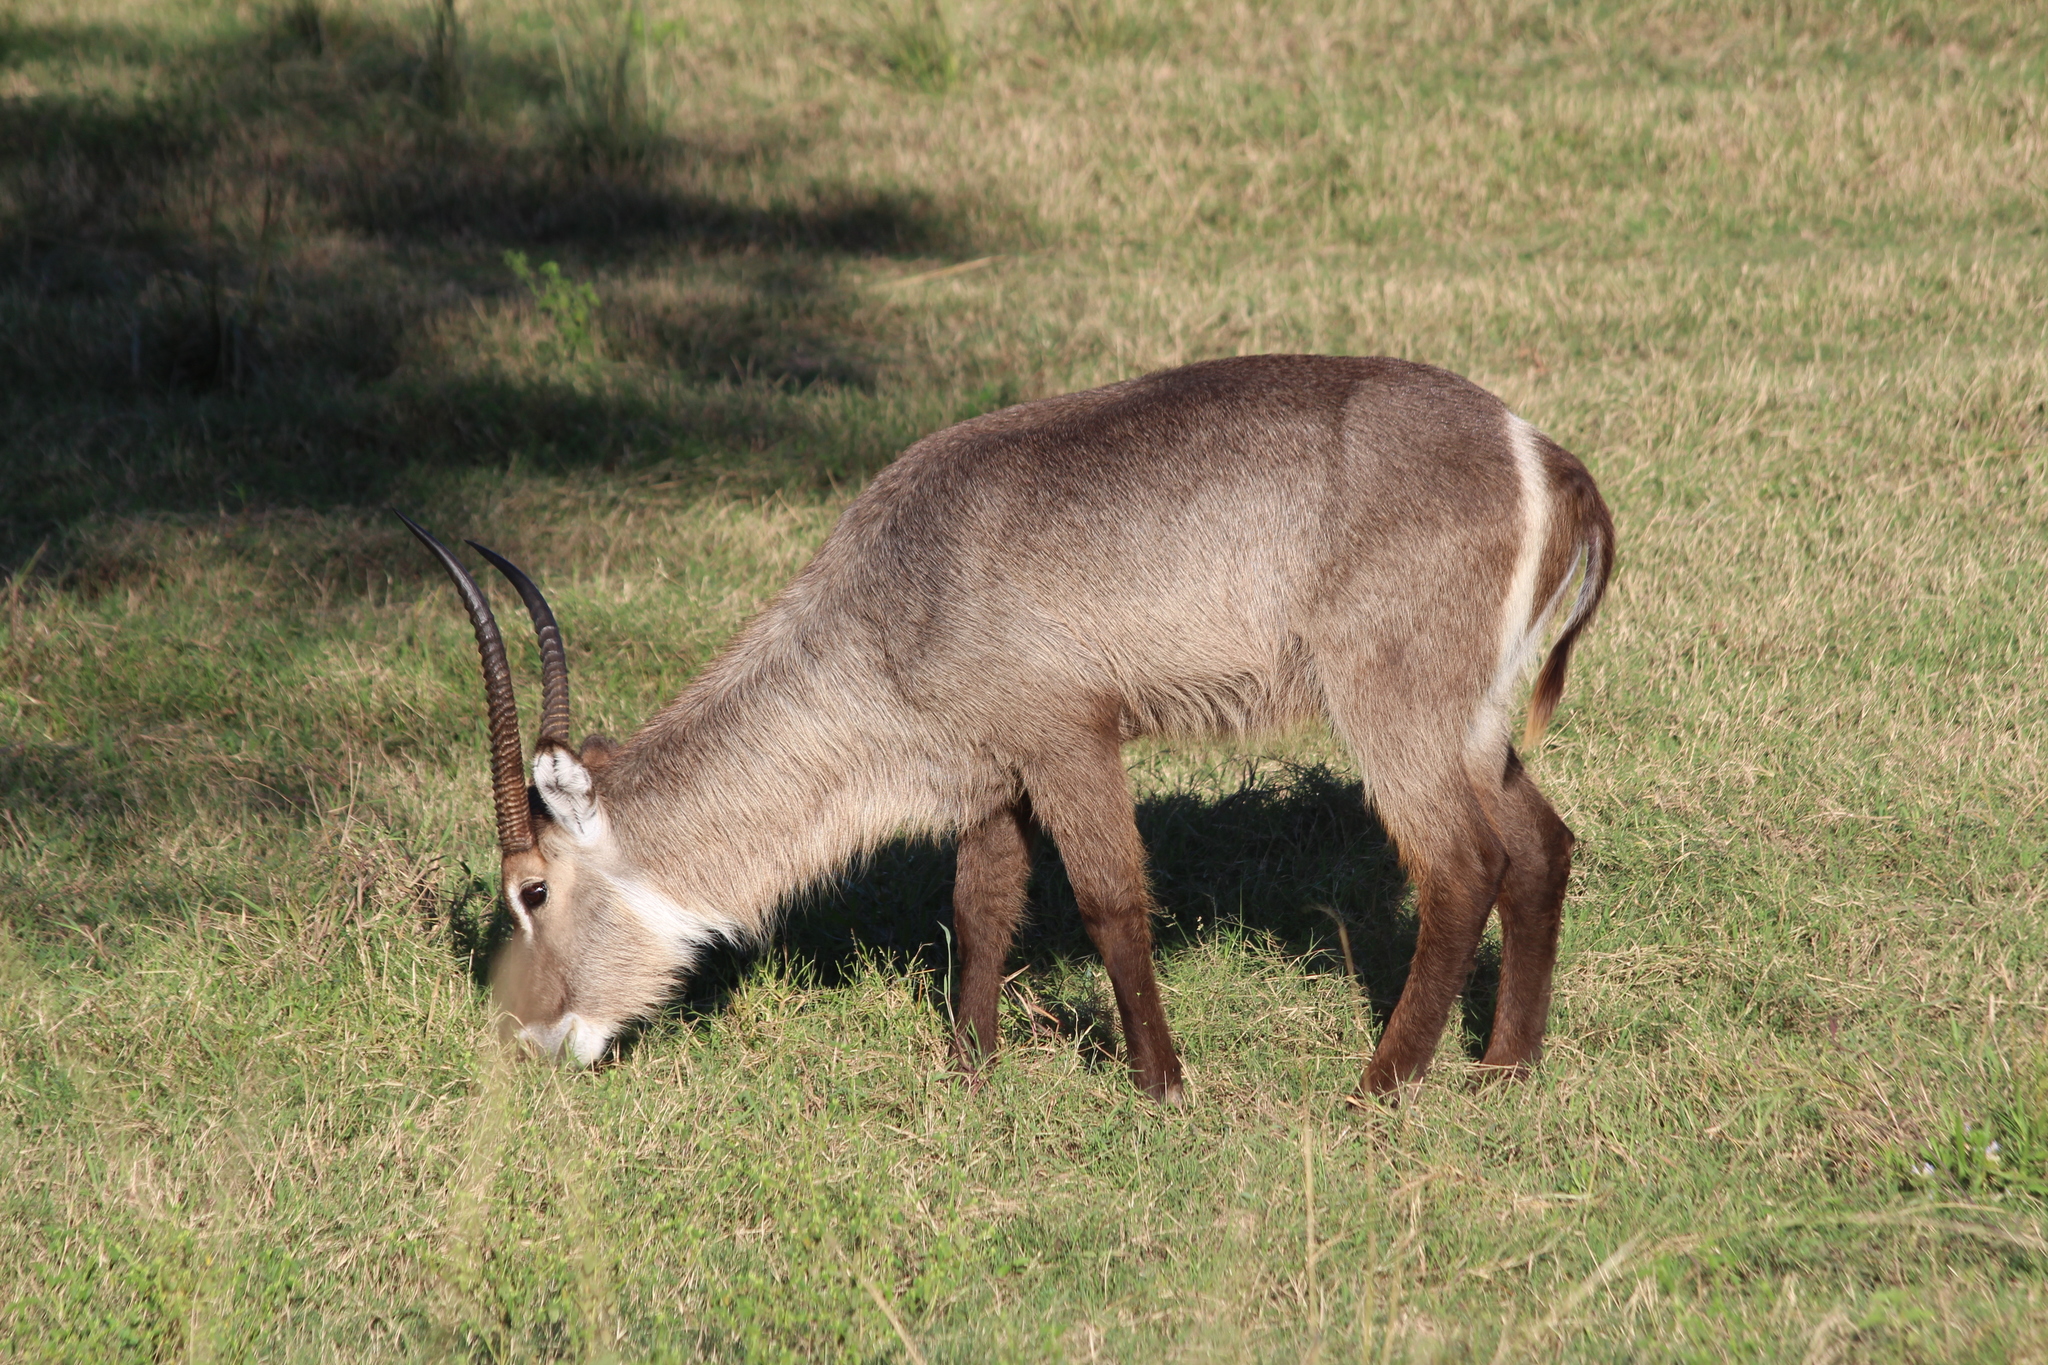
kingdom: Animalia
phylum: Chordata
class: Mammalia
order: Artiodactyla
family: Bovidae
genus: Kobus
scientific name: Kobus ellipsiprymnus
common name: Waterbuck
